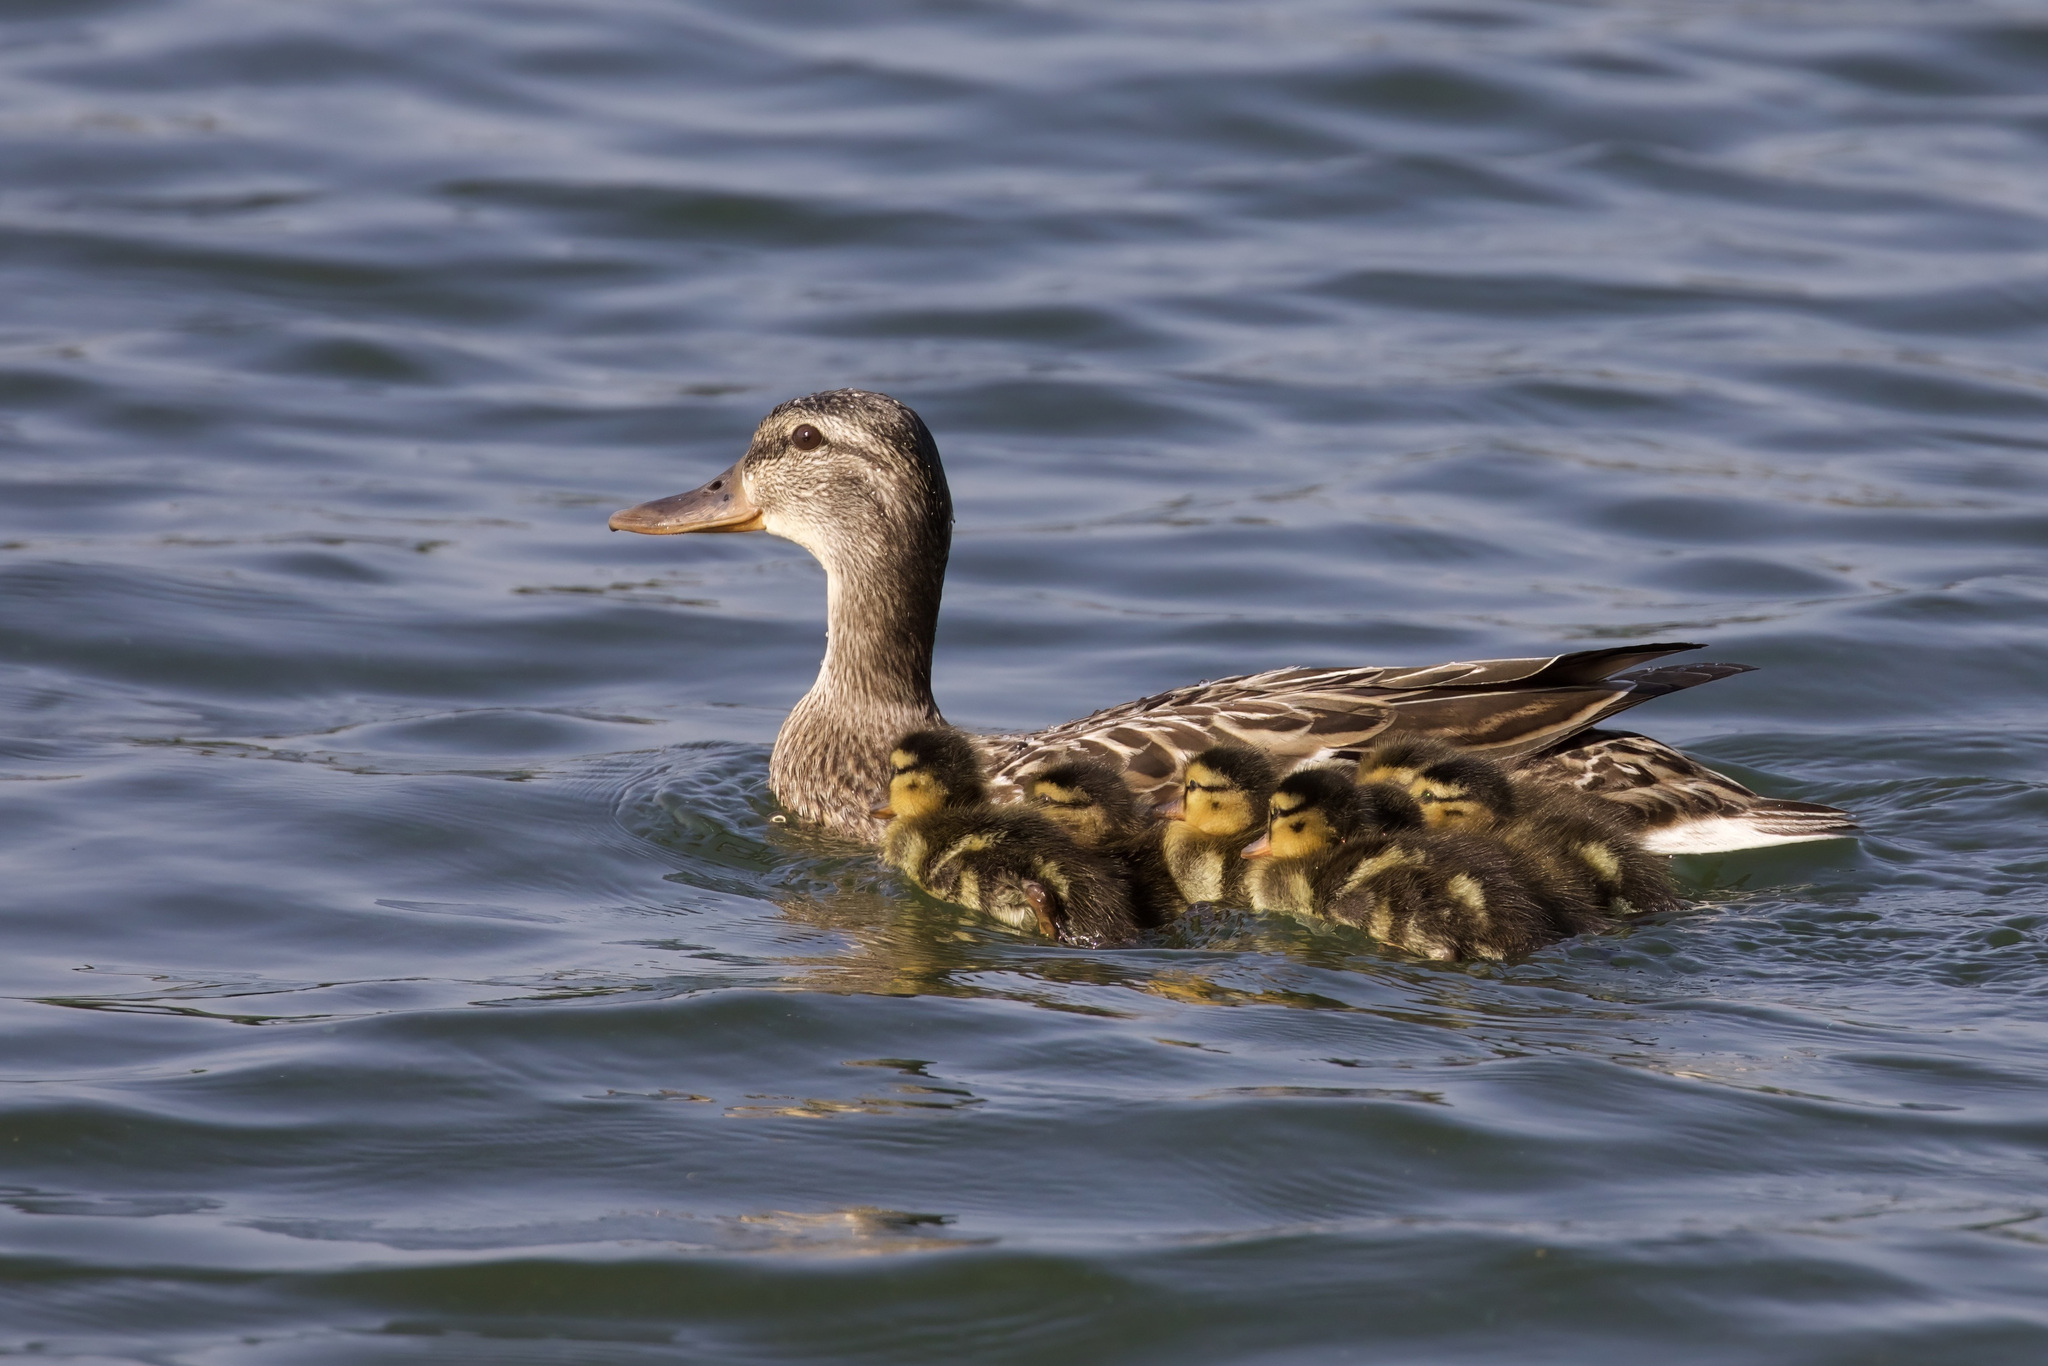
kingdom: Animalia
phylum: Chordata
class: Aves
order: Anseriformes
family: Anatidae
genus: Anas
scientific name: Anas platyrhynchos
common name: Mallard
